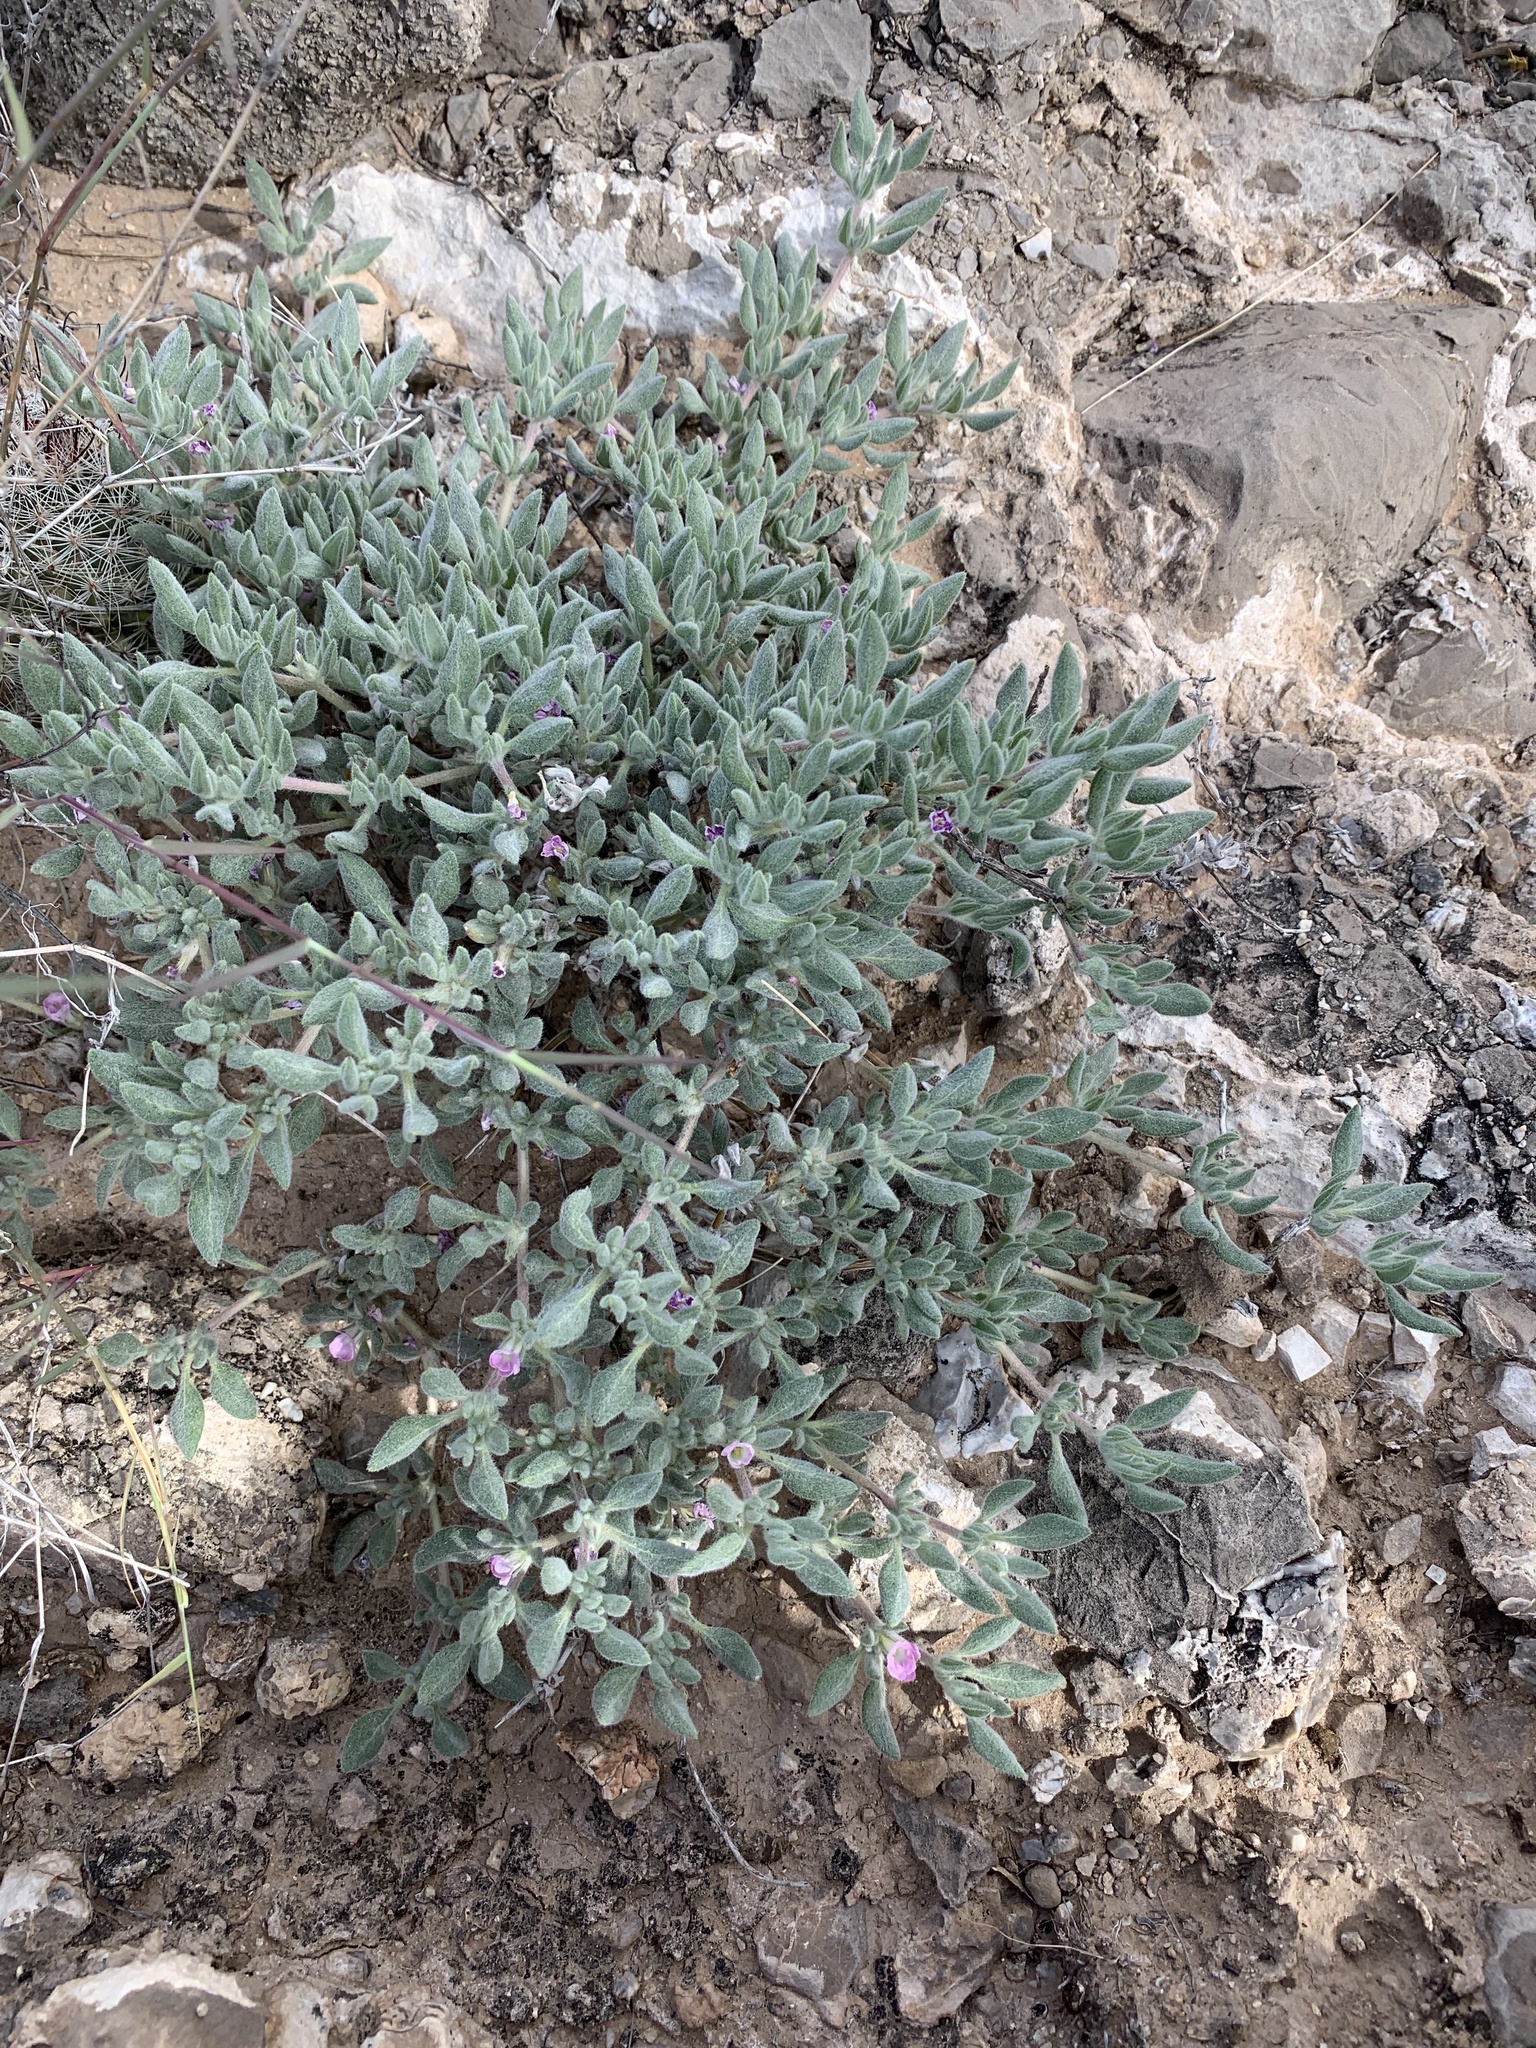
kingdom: Plantae
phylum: Tracheophyta
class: Magnoliopsida
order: Boraginales
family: Ehretiaceae
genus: Tiquilia
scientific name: Tiquilia canescens
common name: Hairy tiquilia
